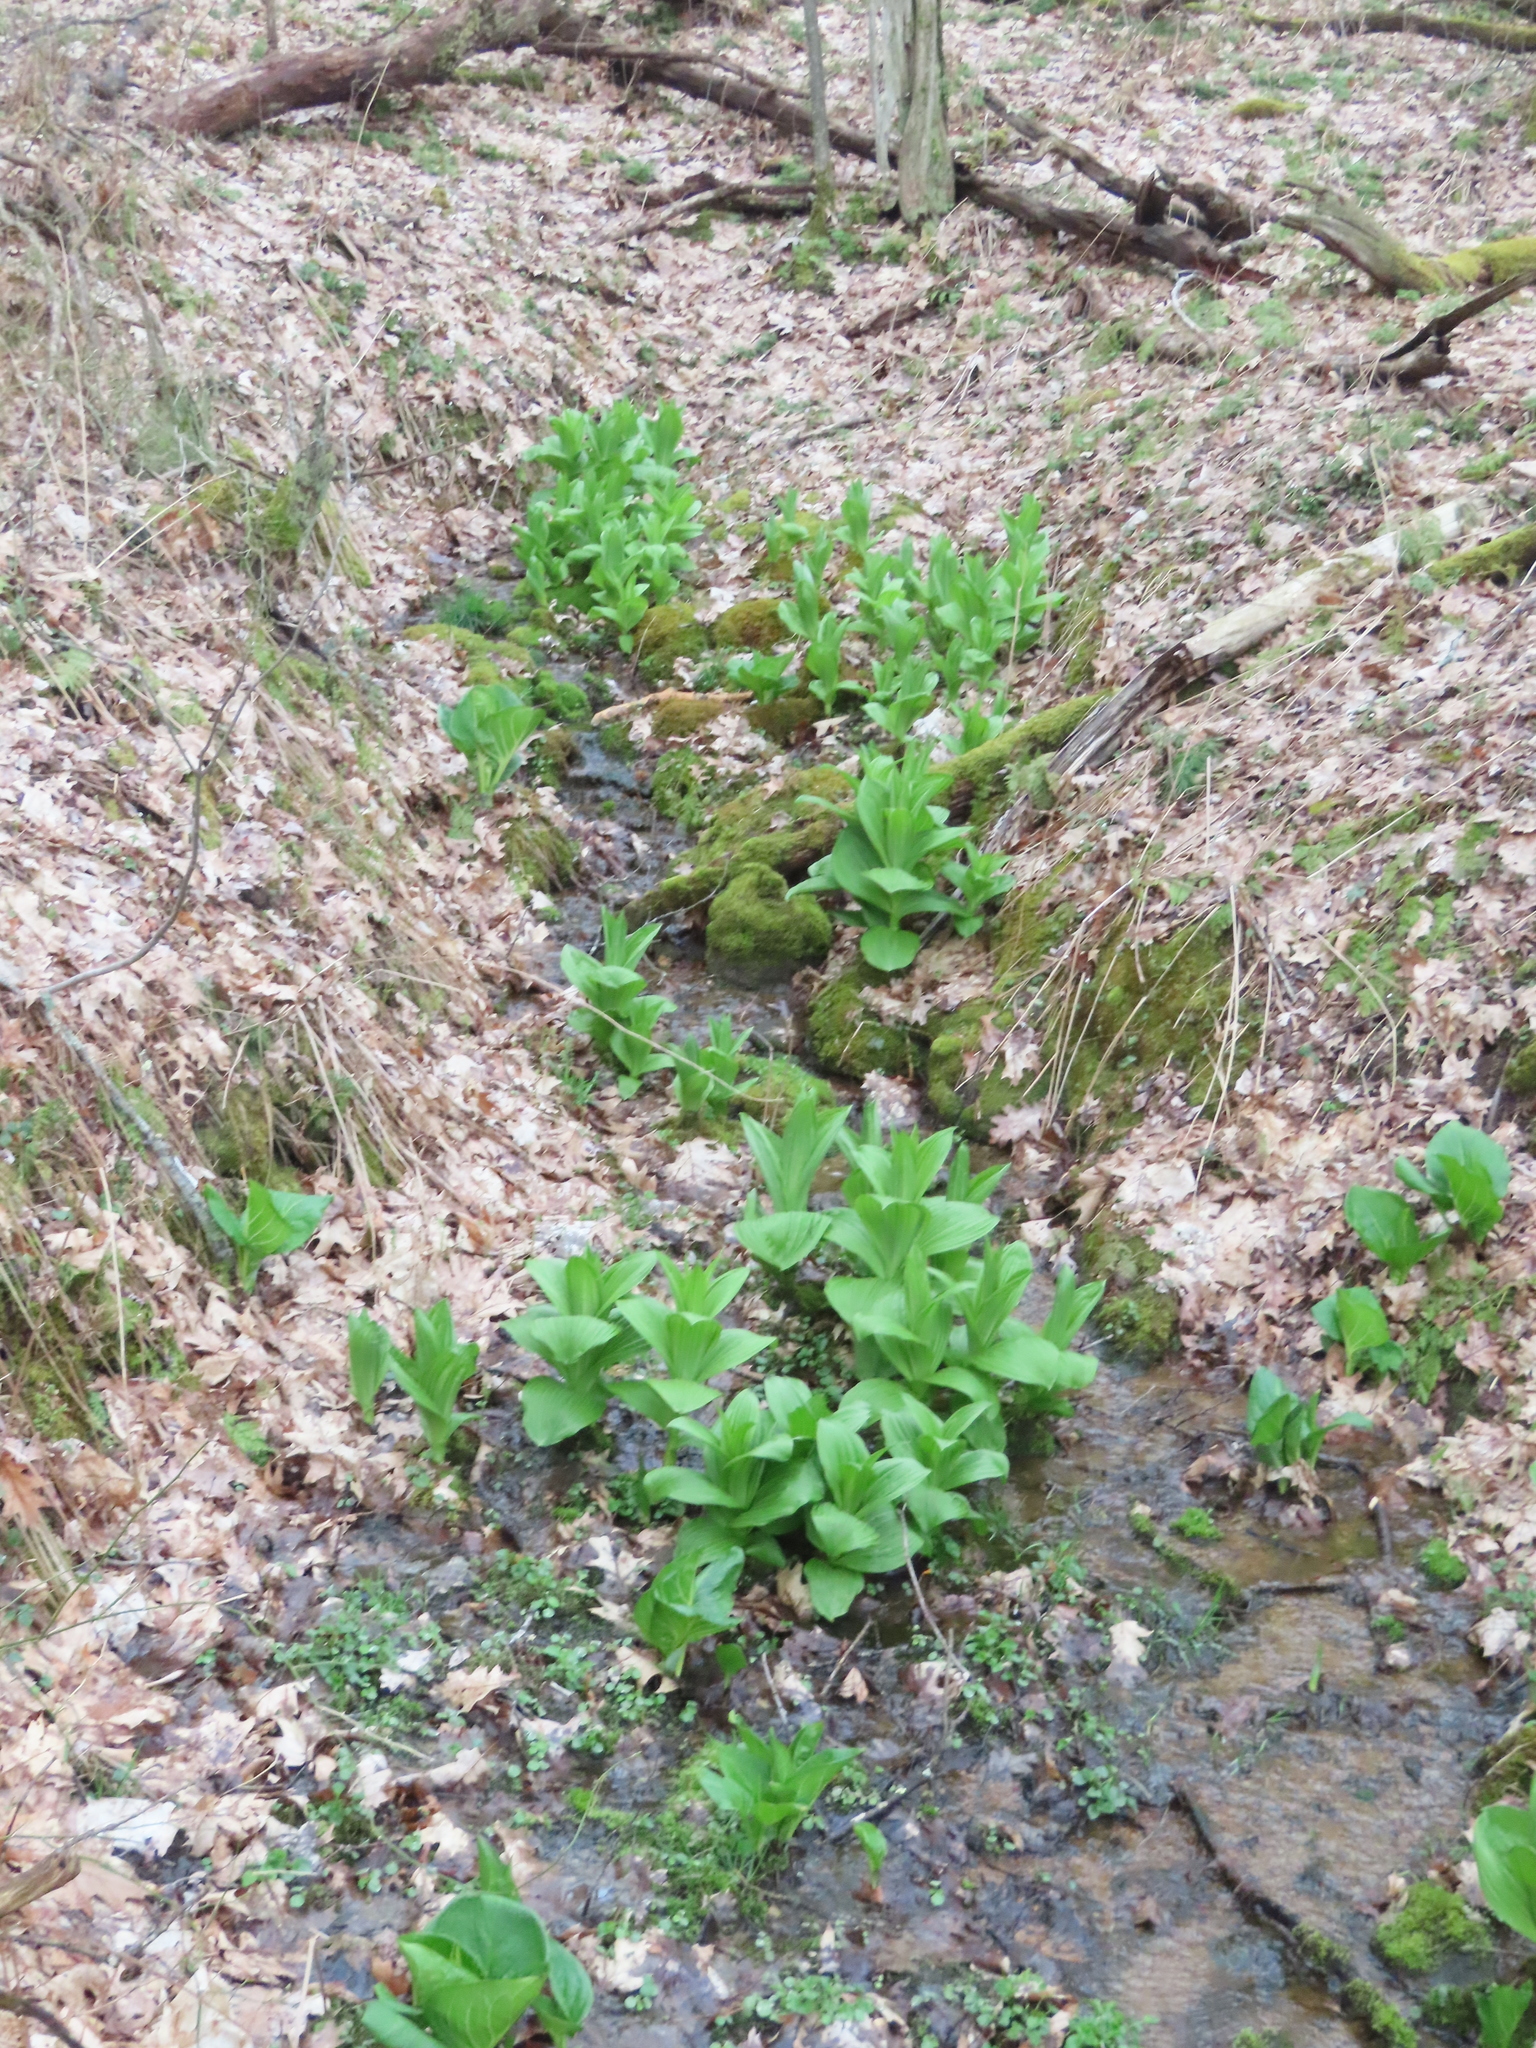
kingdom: Plantae
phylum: Tracheophyta
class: Liliopsida
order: Liliales
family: Melanthiaceae
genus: Veratrum
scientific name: Veratrum viride
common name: American false hellebore
